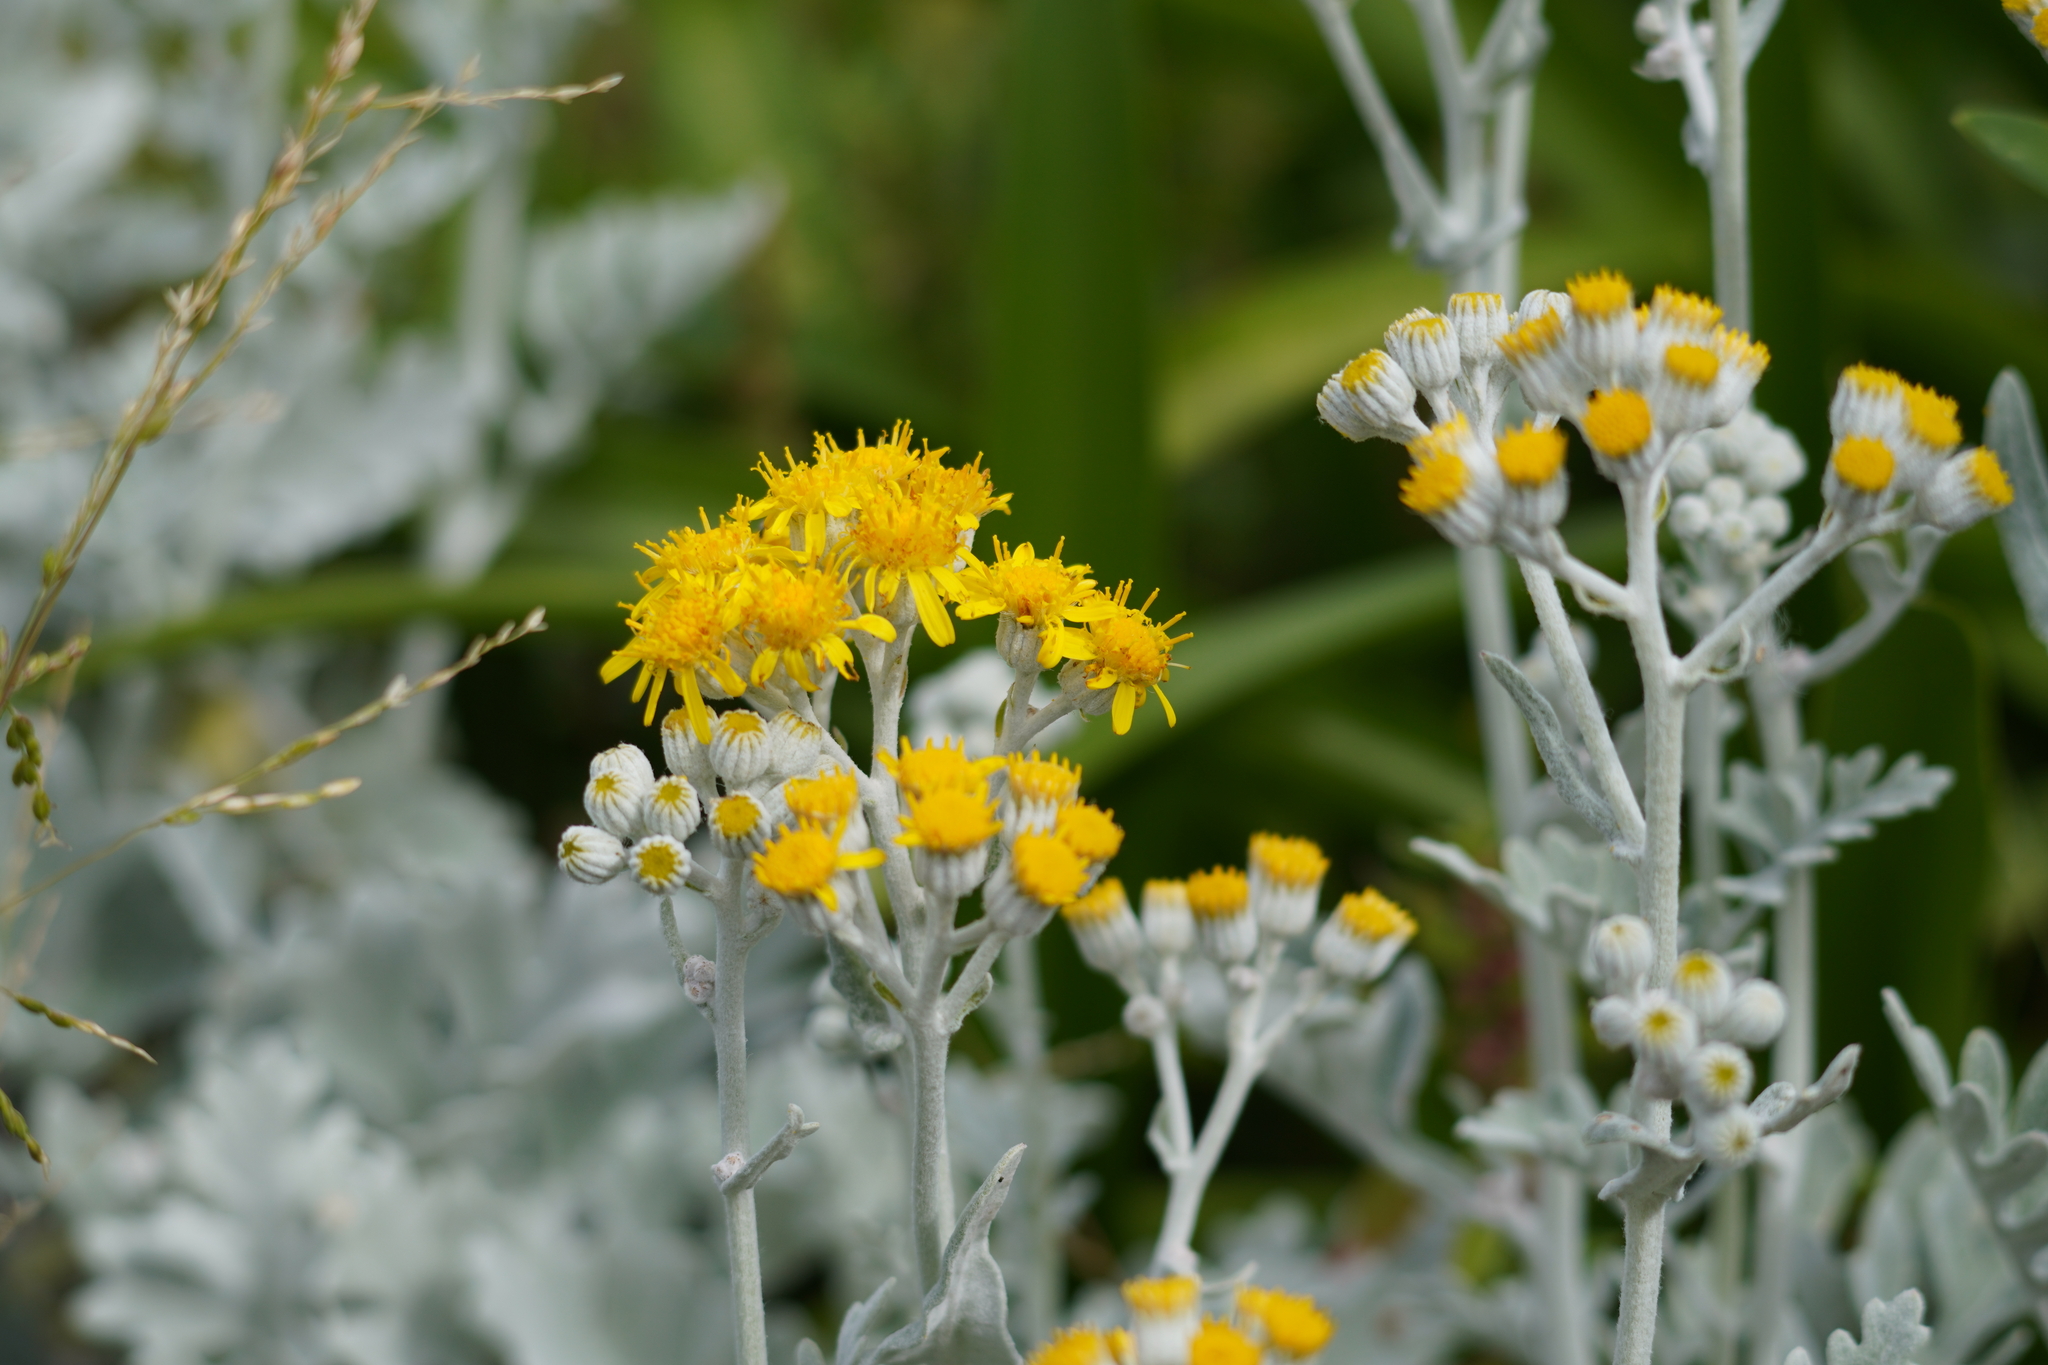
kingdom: Plantae
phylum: Tracheophyta
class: Magnoliopsida
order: Asterales
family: Asteraceae
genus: Jacobaea
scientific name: Jacobaea maritima
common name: Silver ragwort
